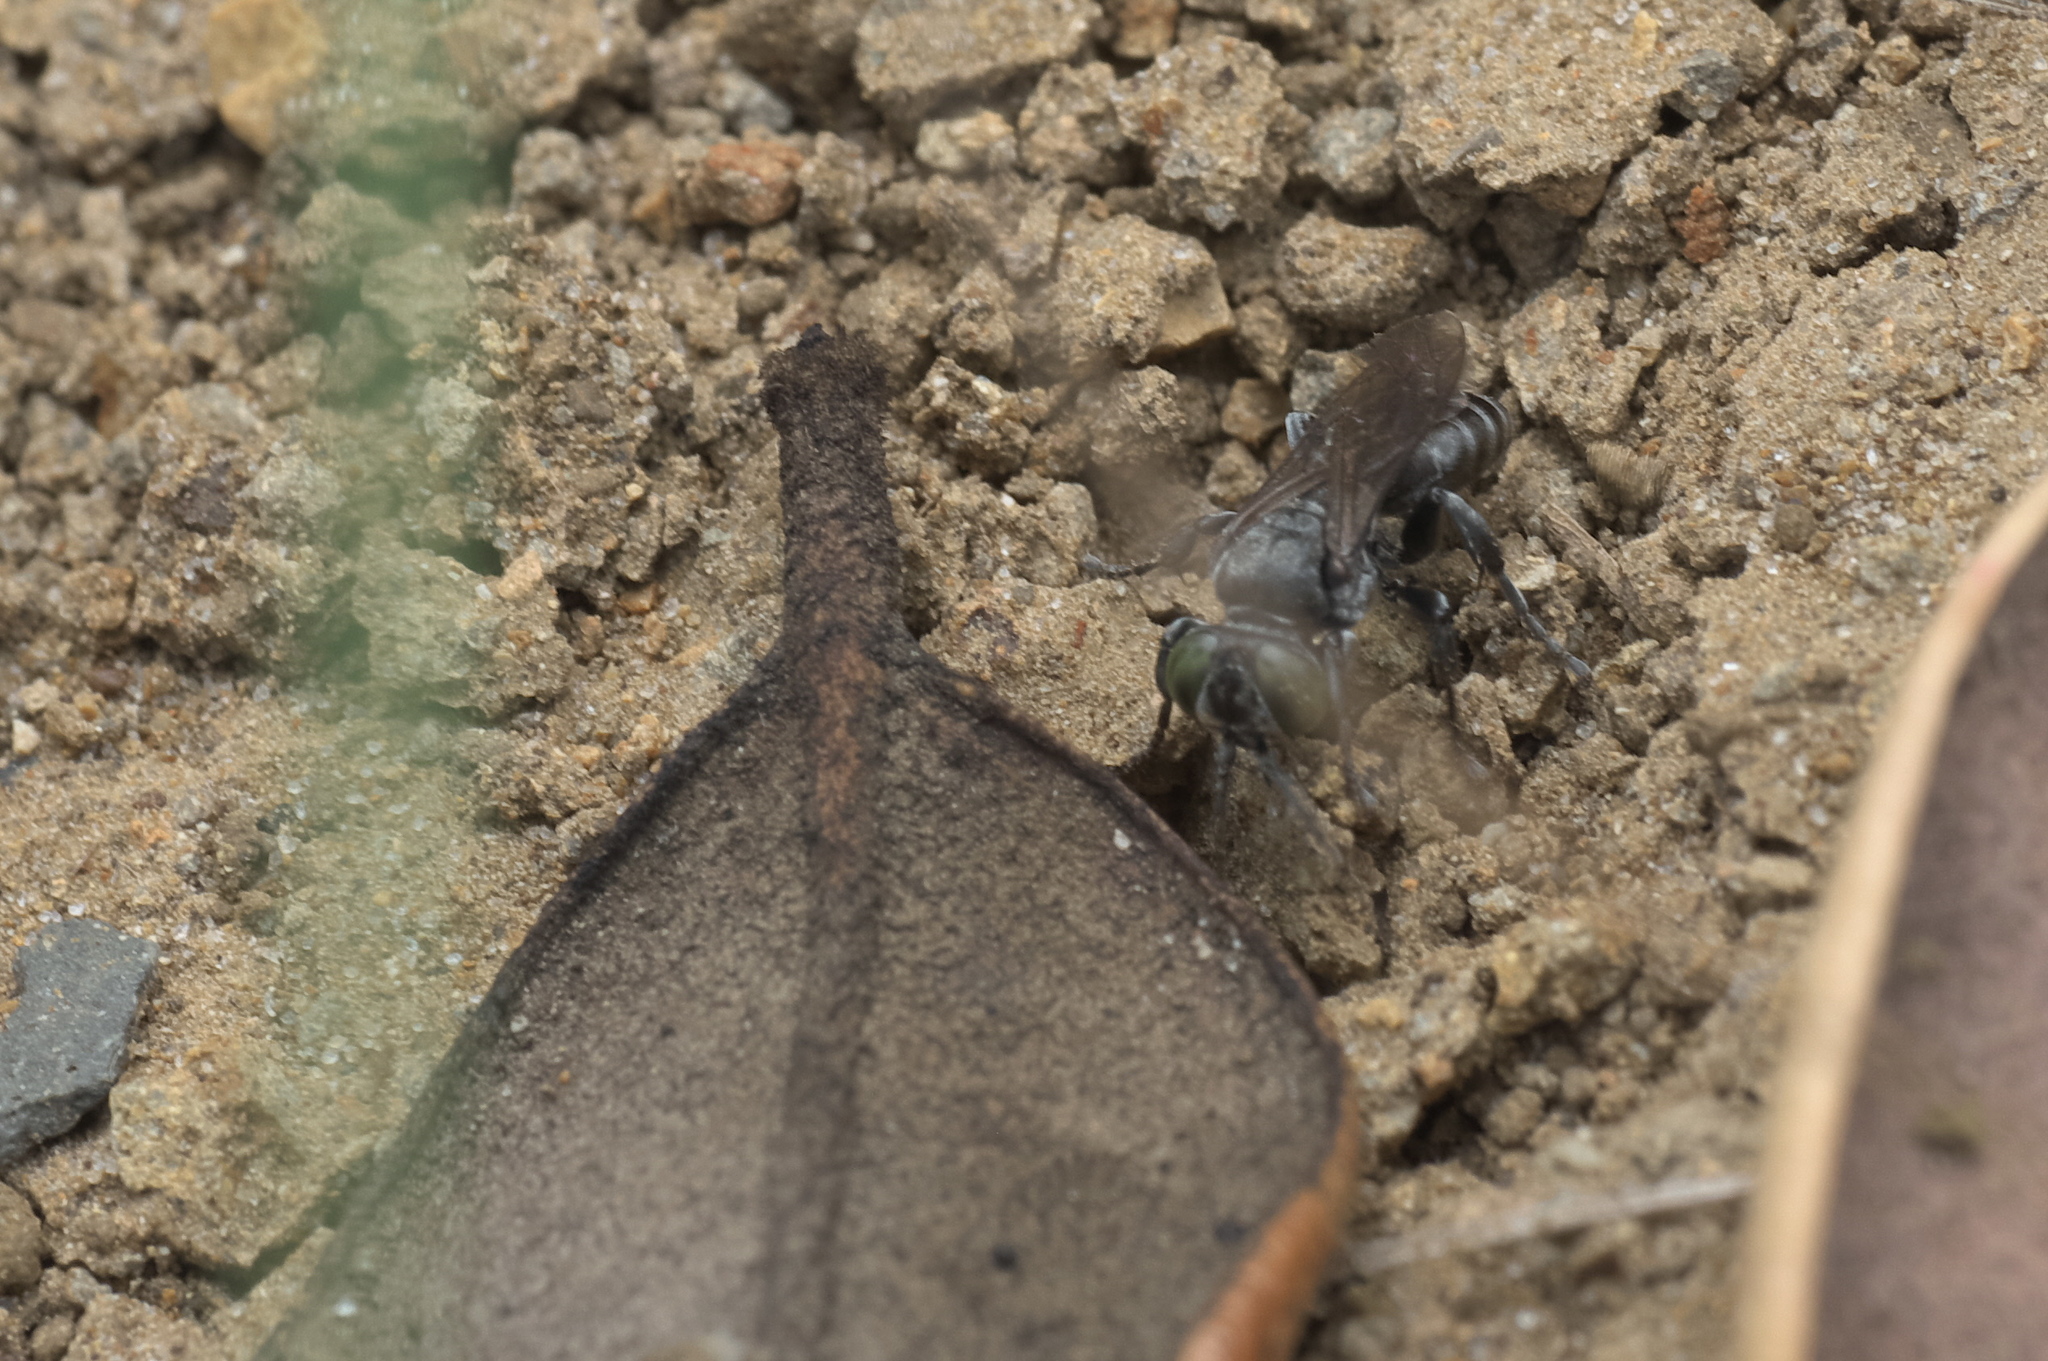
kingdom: Animalia
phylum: Arthropoda
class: Insecta
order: Hymenoptera
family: Crabronidae
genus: Tachysphex
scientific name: Tachysphex nigerrimus
